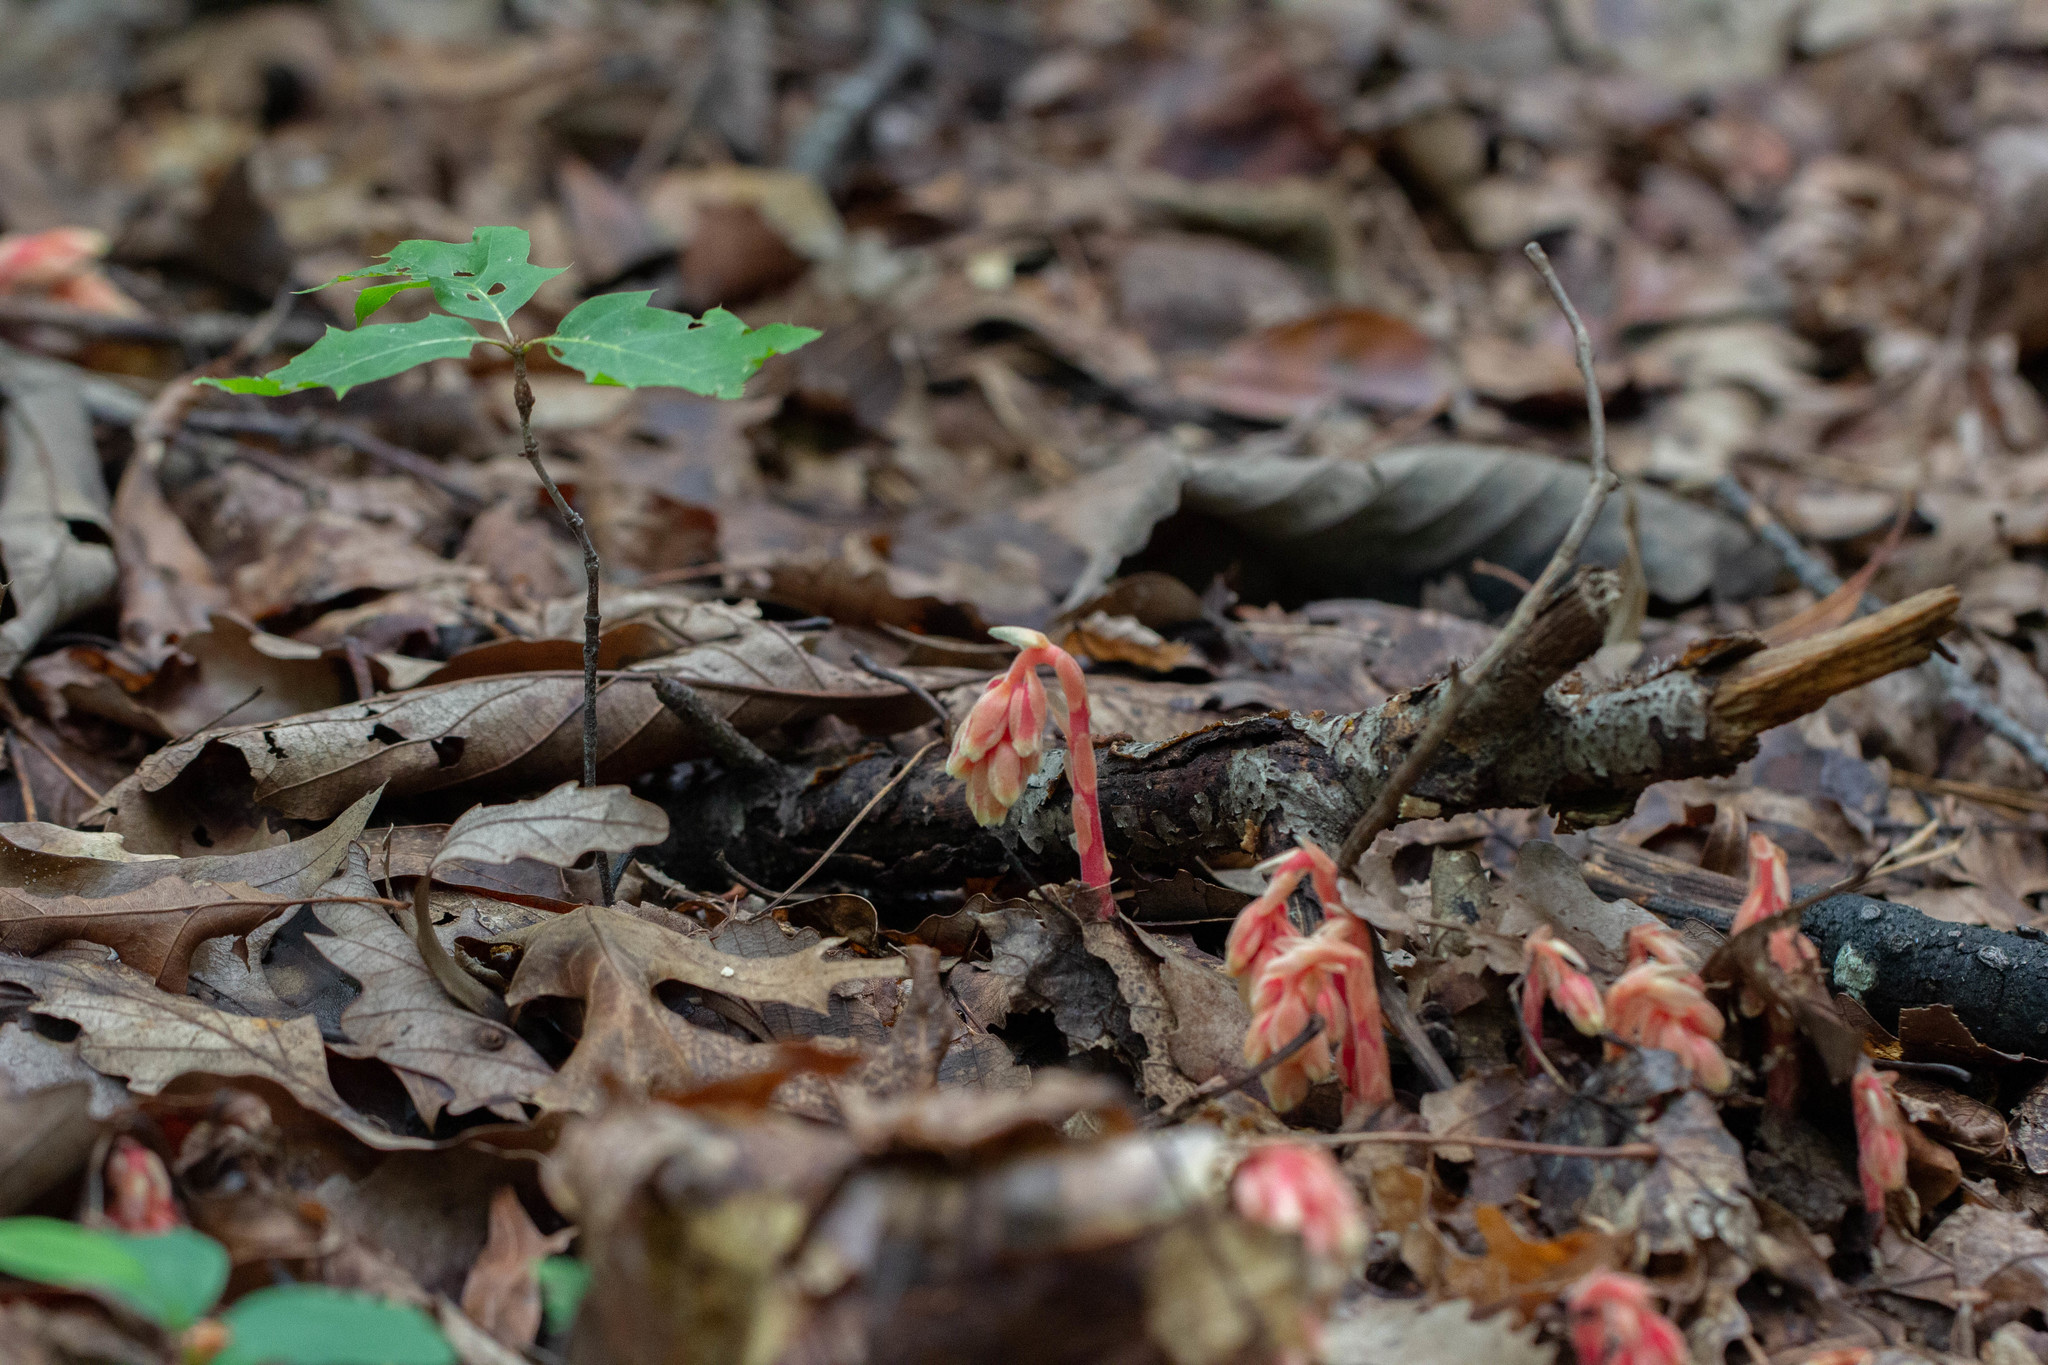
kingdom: Plantae
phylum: Tracheophyta
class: Magnoliopsida
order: Ericales
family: Ericaceae
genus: Hypopitys
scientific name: Hypopitys monotropa
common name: Yellow bird's-nest
